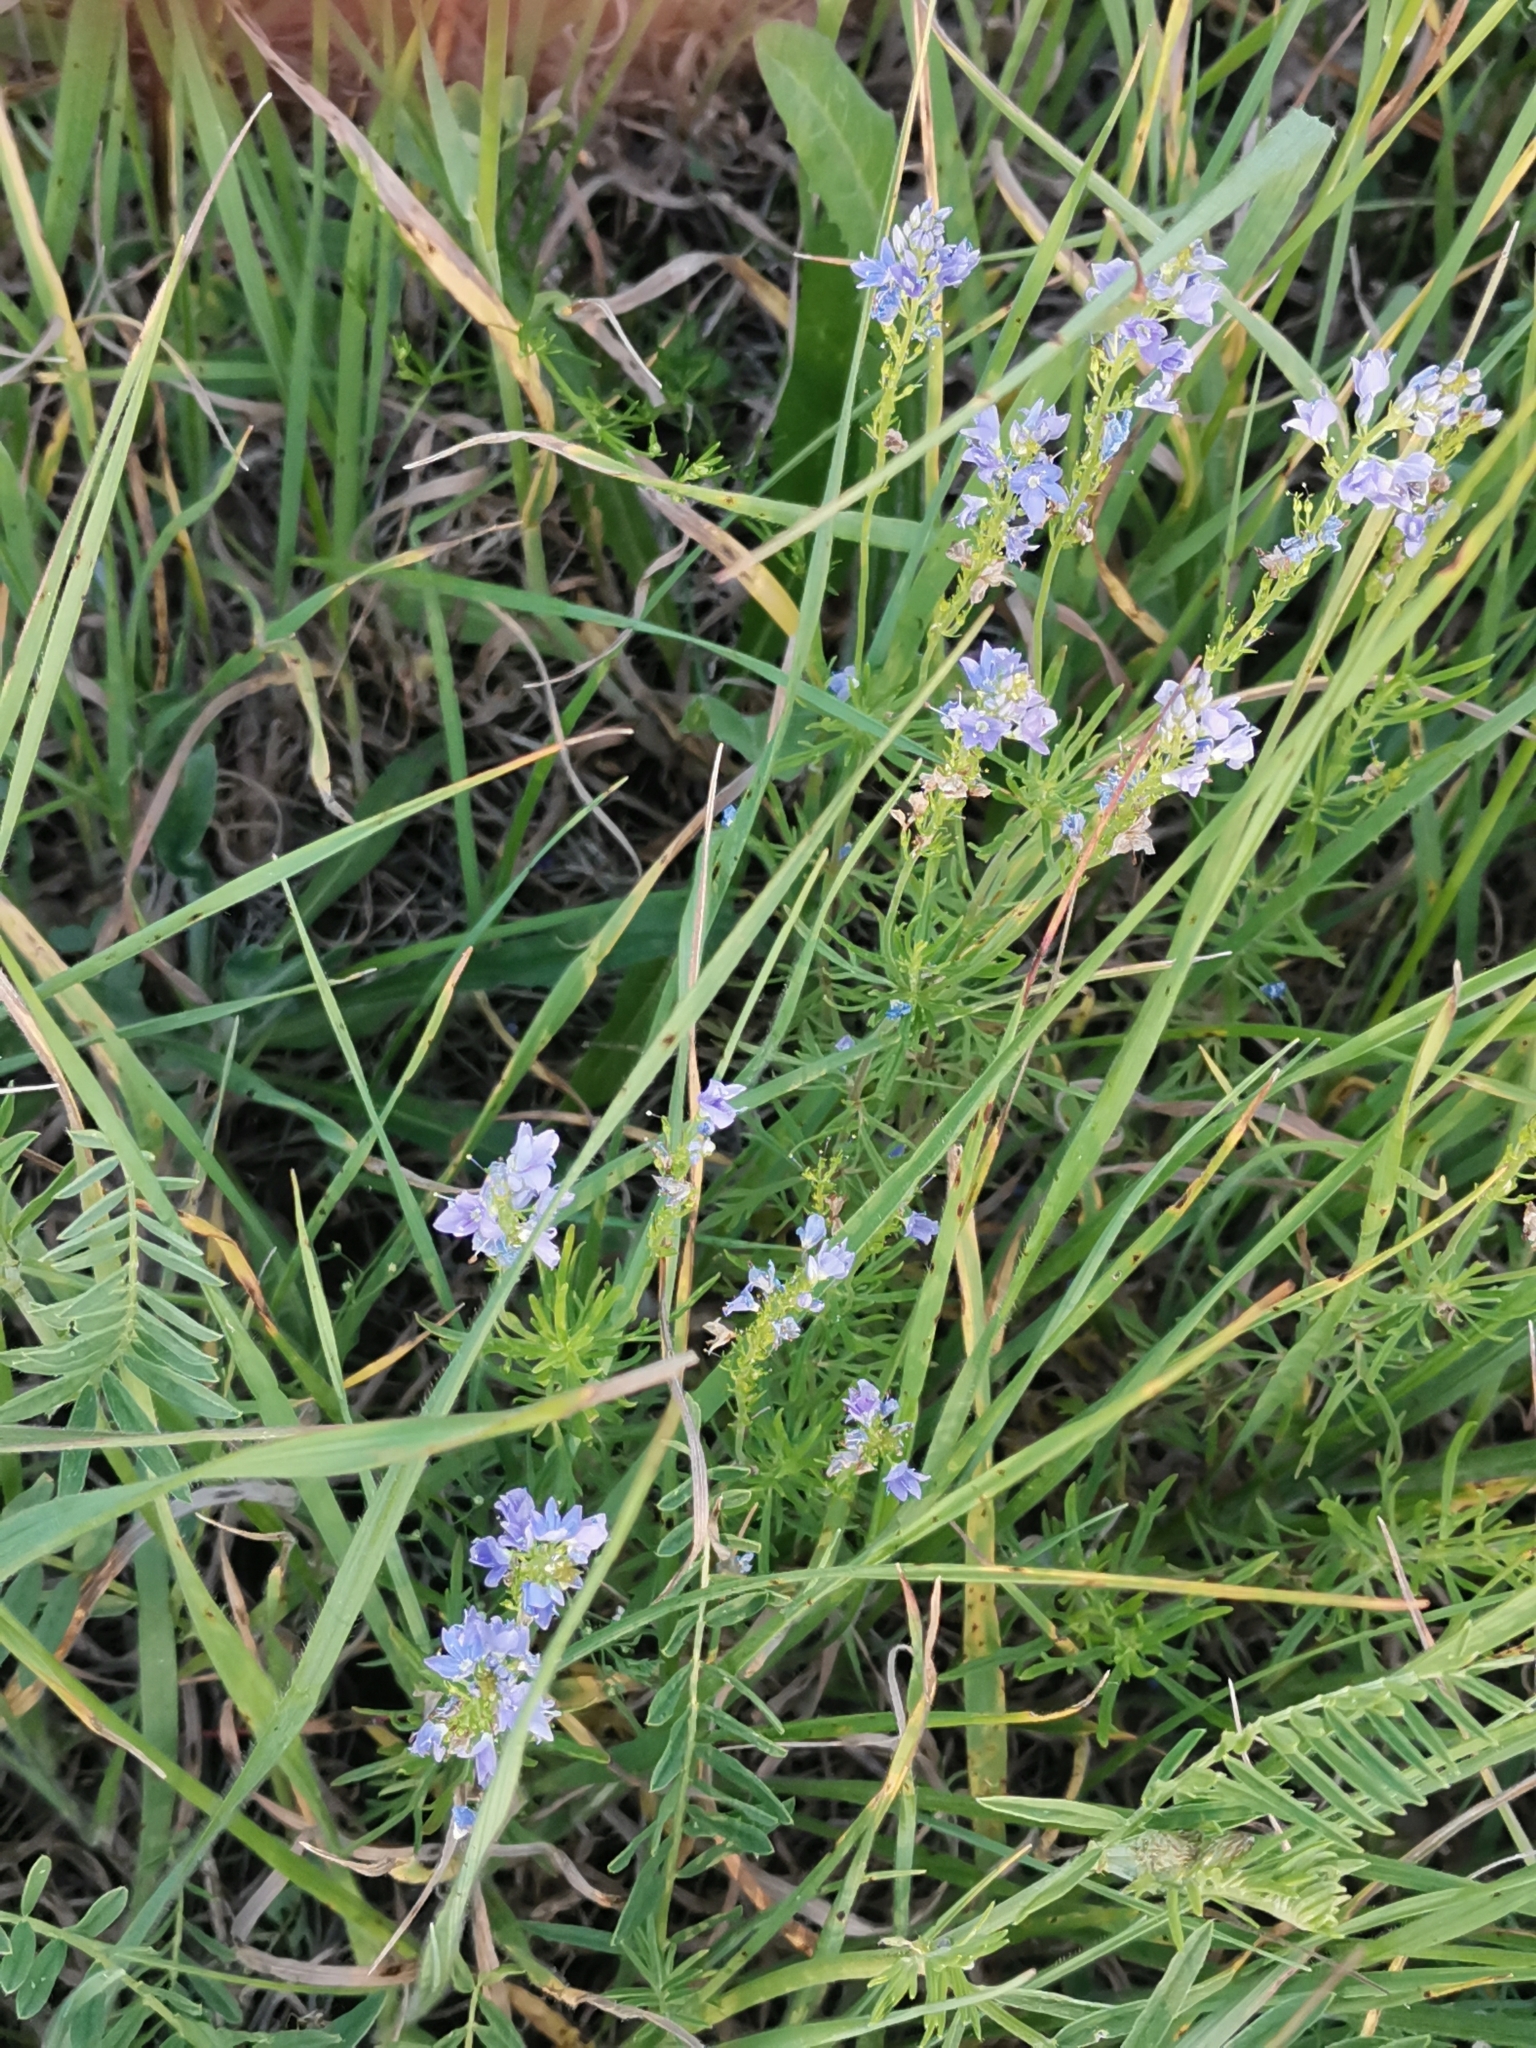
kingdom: Plantae
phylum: Tracheophyta
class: Magnoliopsida
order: Lamiales
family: Plantaginaceae
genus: Veronica
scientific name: Veronica austriaca
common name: Large speedwell
